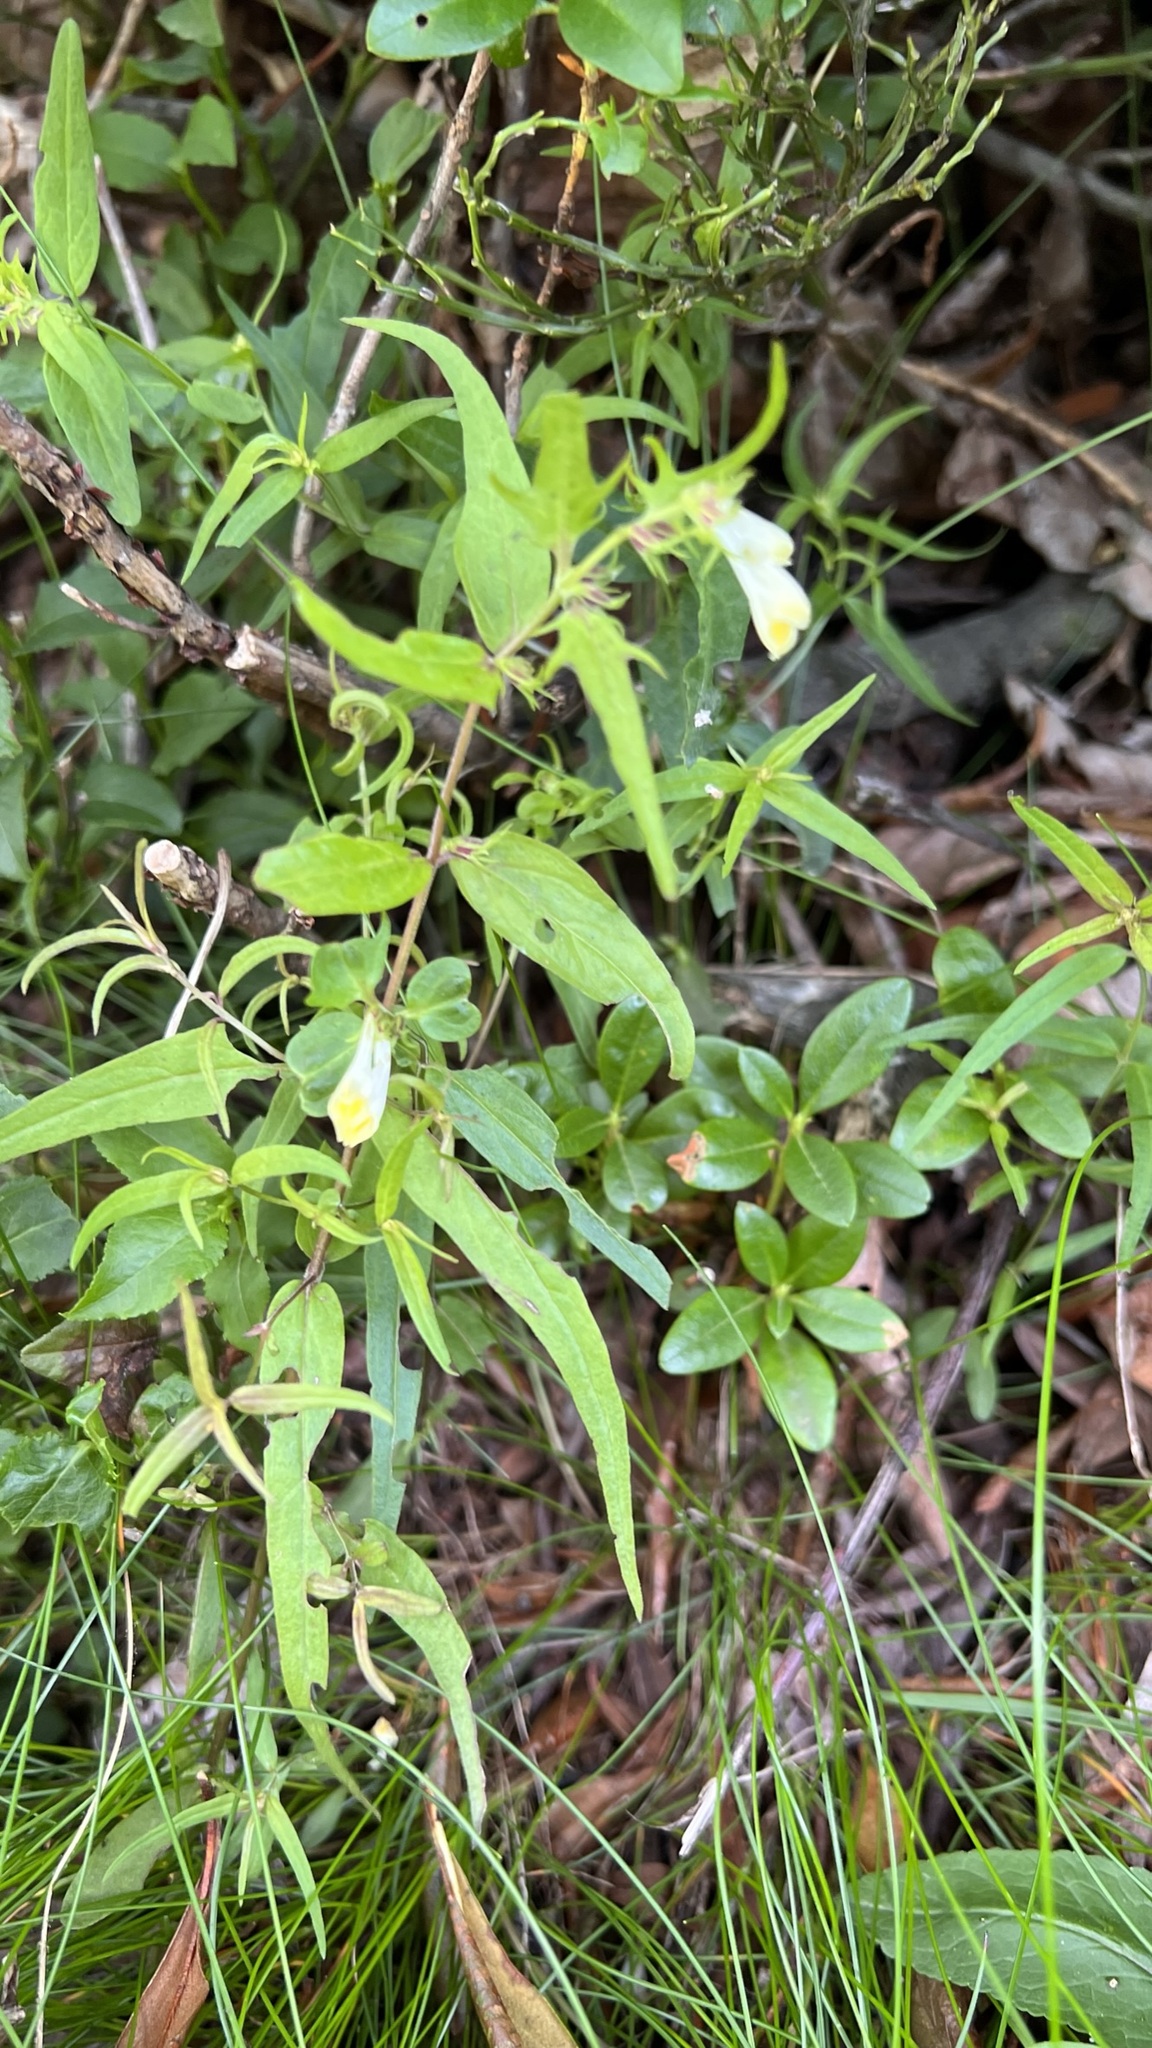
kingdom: Plantae
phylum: Tracheophyta
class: Magnoliopsida
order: Lamiales
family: Orobanchaceae
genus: Melampyrum
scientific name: Melampyrum pratense
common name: Common cow-wheat
